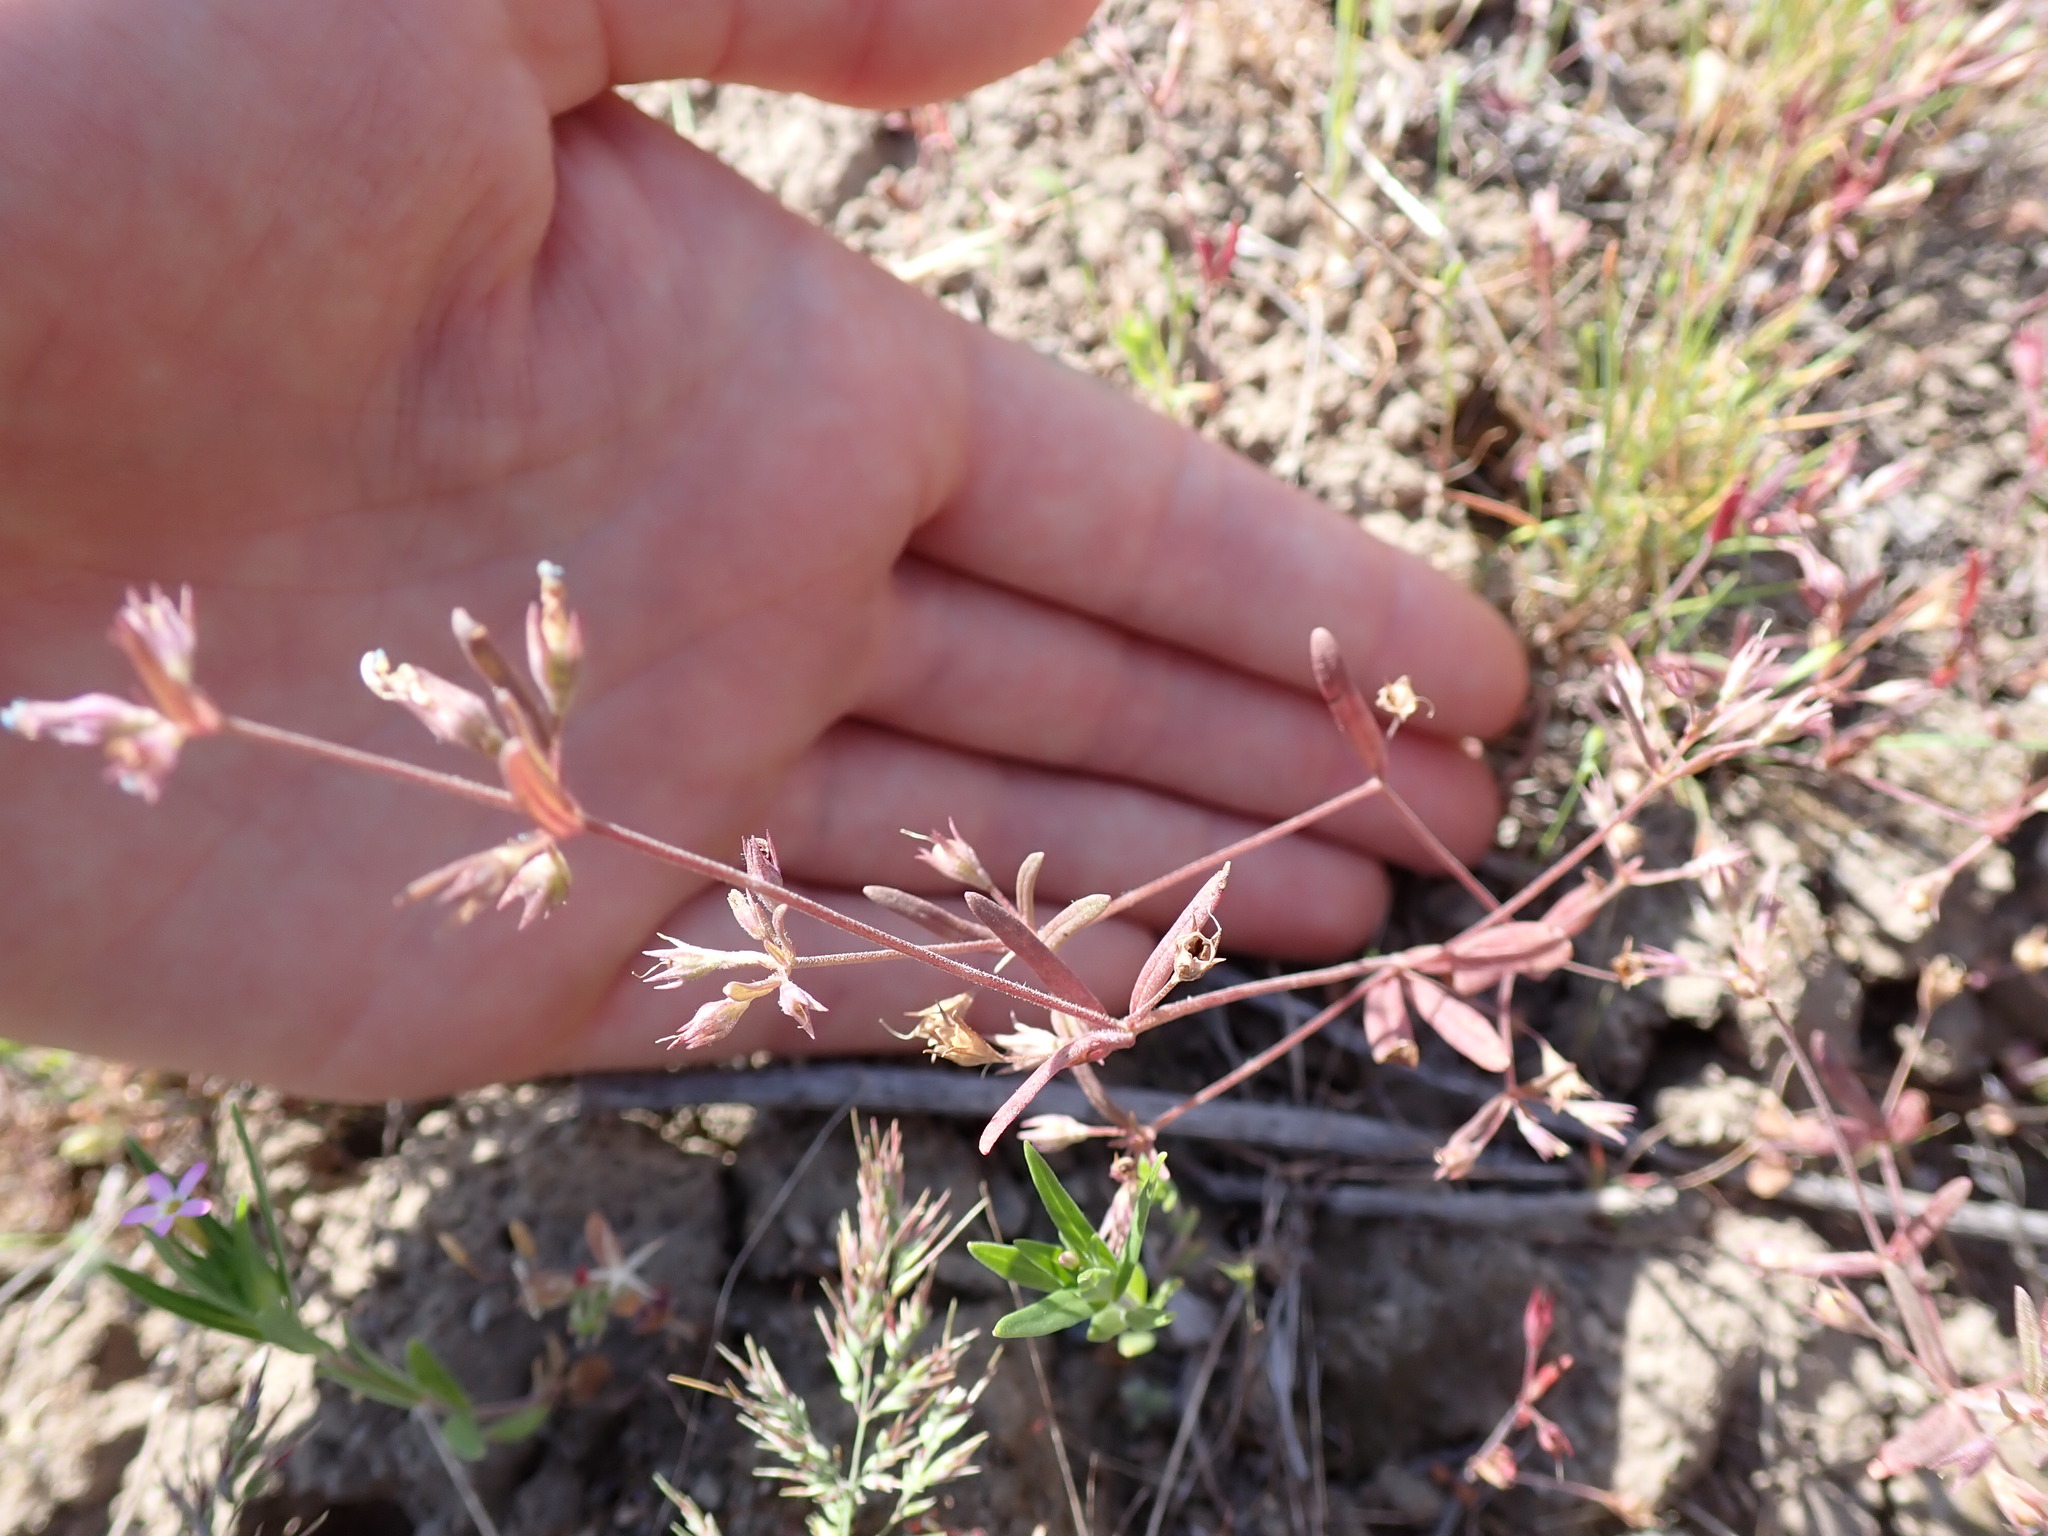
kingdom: Plantae
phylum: Tracheophyta
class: Magnoliopsida
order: Lamiales
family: Plantaginaceae
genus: Collinsia
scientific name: Collinsia parviflora
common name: Blue-lips
